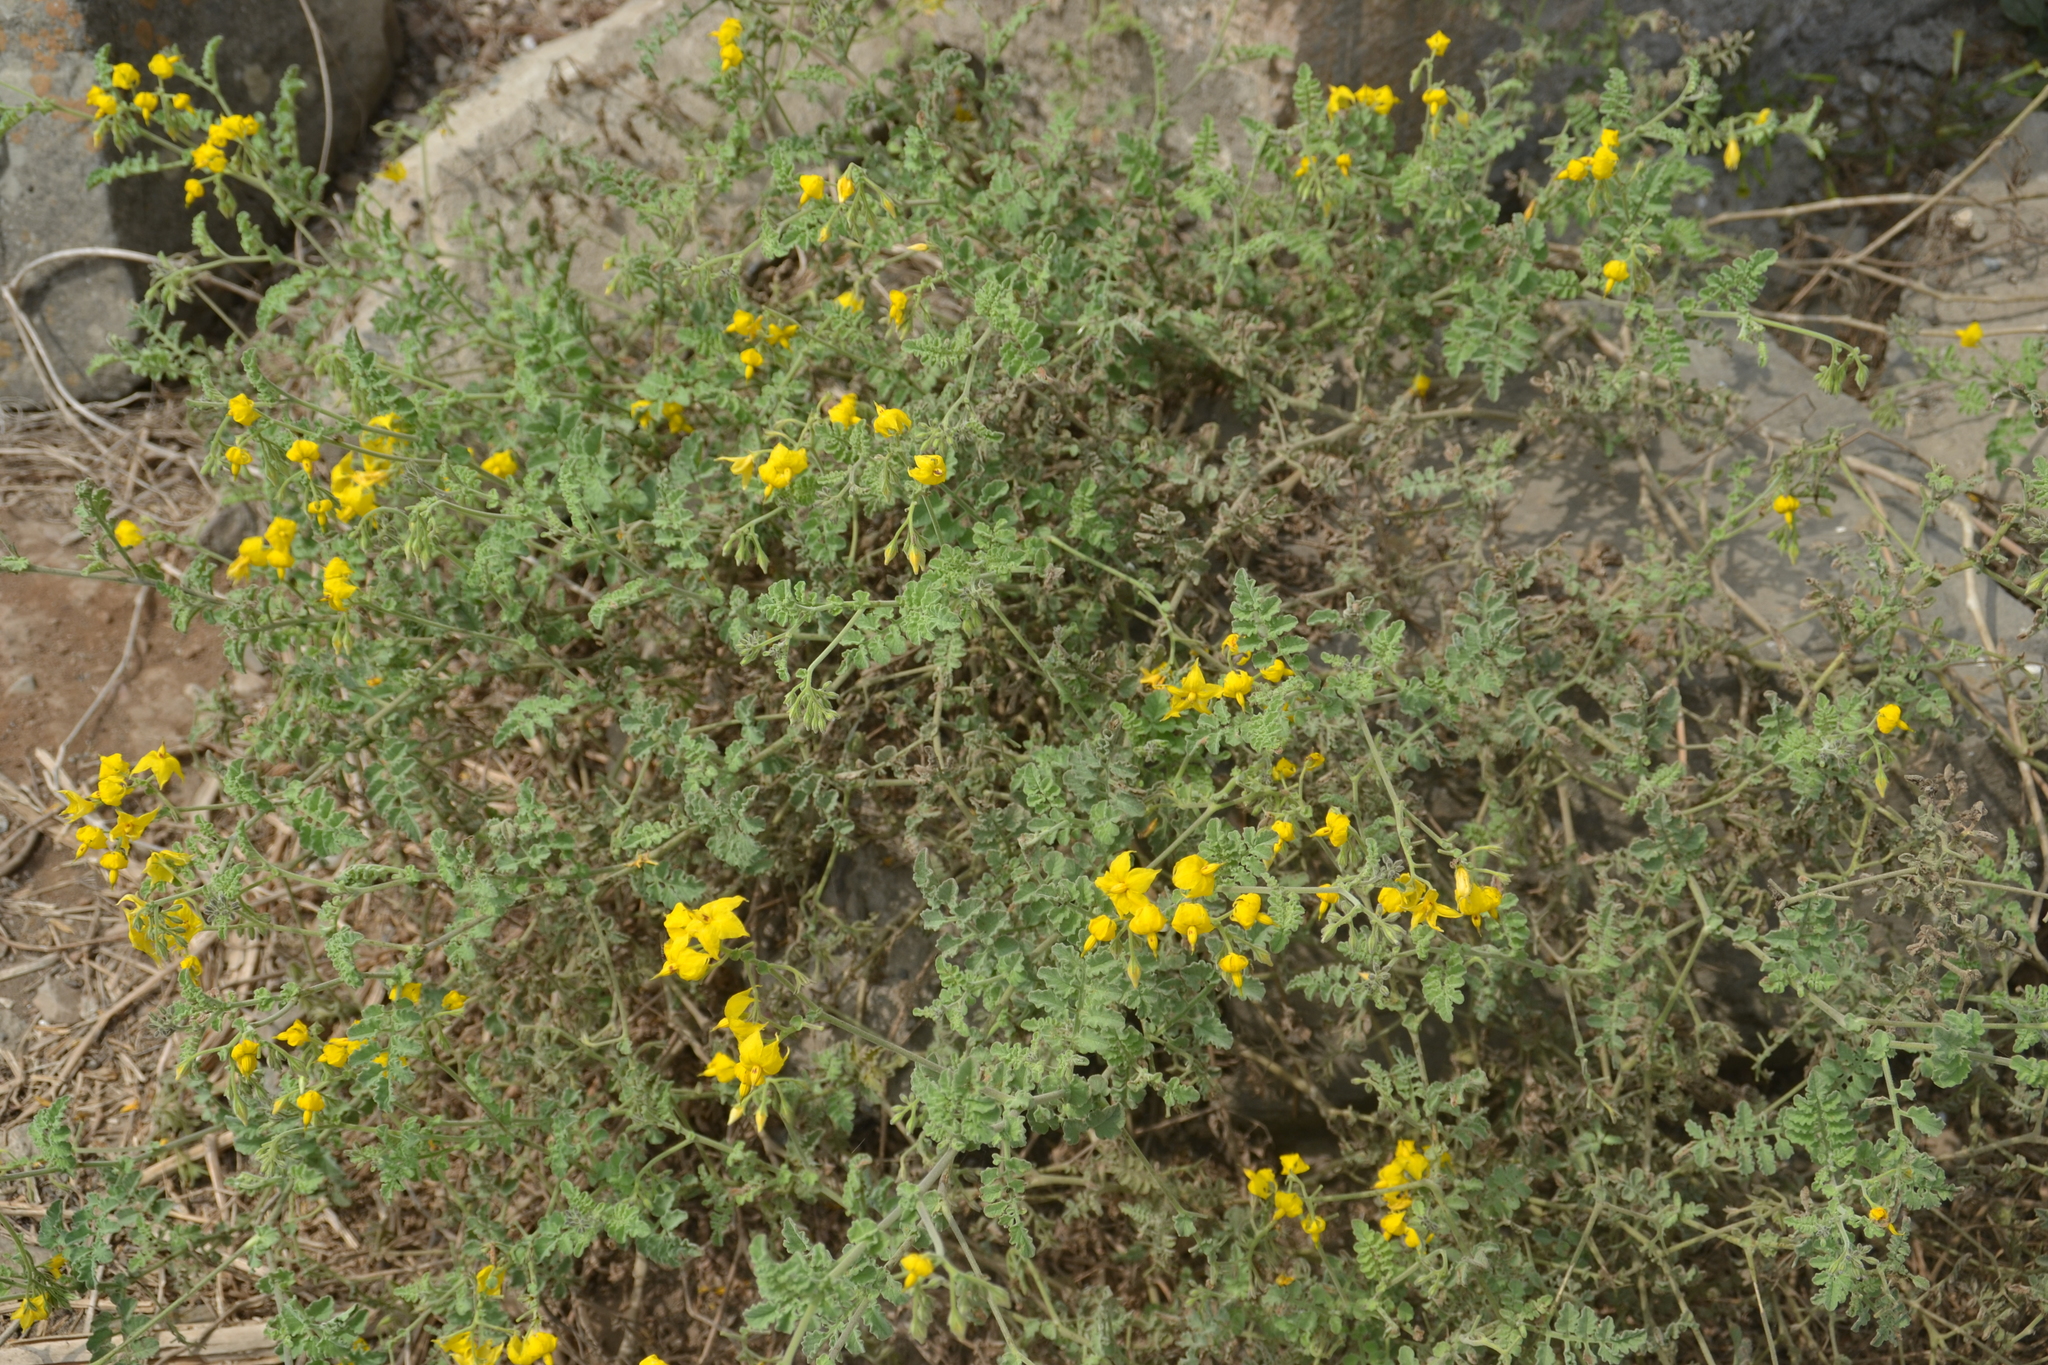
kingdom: Plantae
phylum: Tracheophyta
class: Magnoliopsida
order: Solanales
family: Solanaceae
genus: Solanum
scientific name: Solanum corneliomulleri
